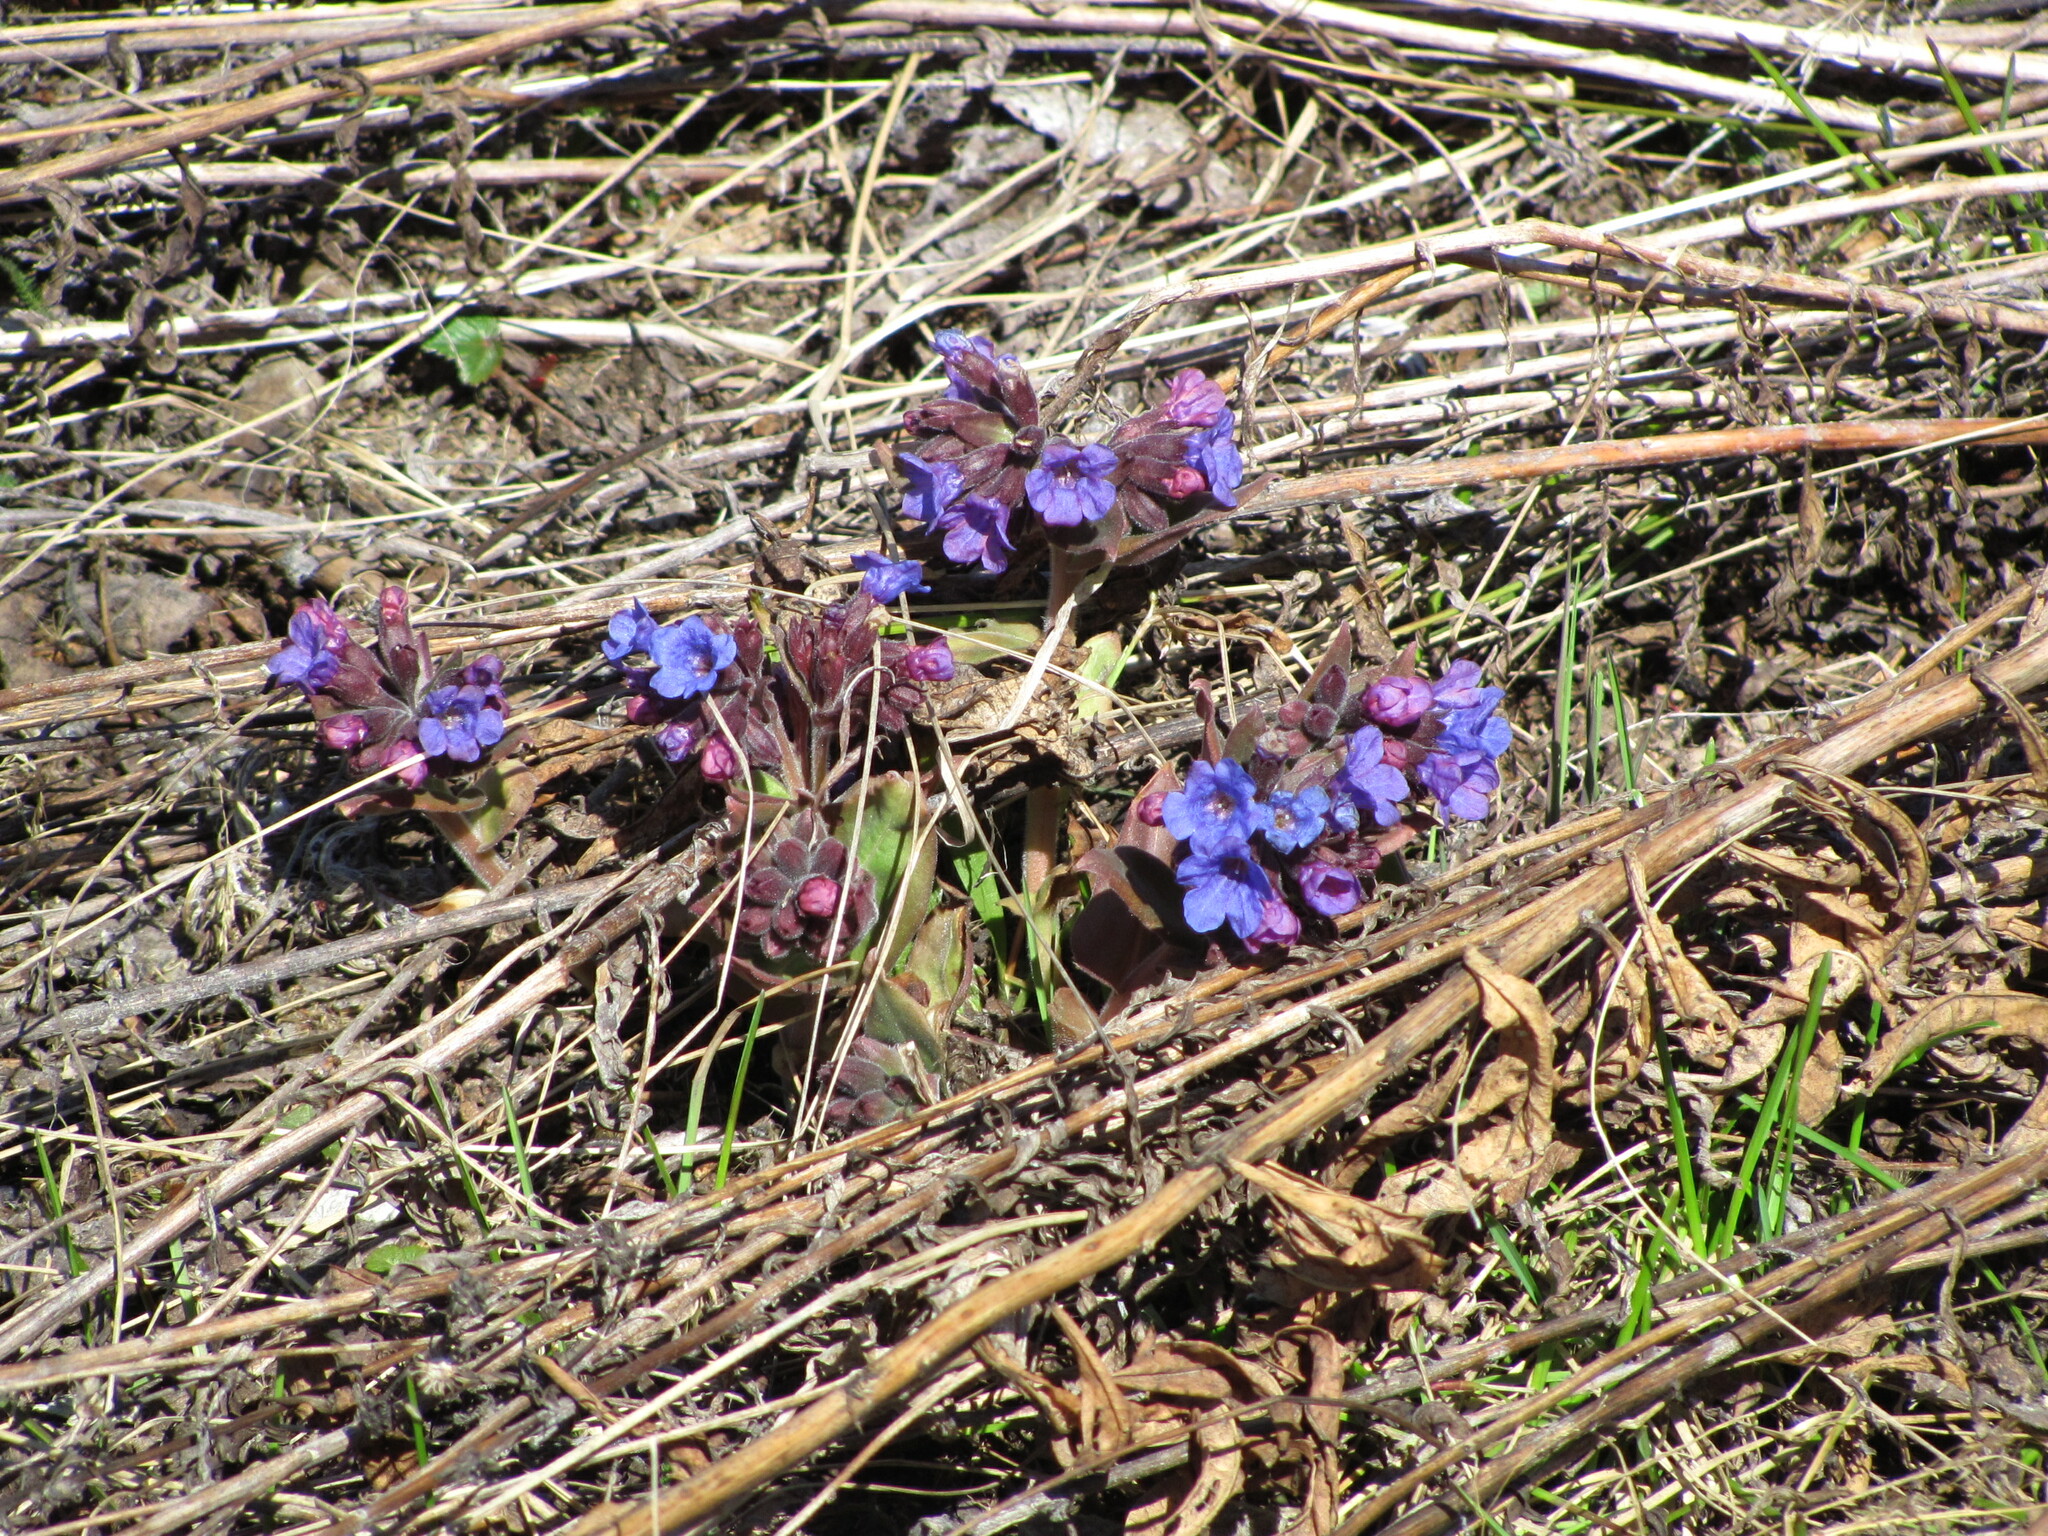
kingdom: Plantae
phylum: Tracheophyta
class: Magnoliopsida
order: Boraginales
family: Boraginaceae
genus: Pulmonaria
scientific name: Pulmonaria mollis
